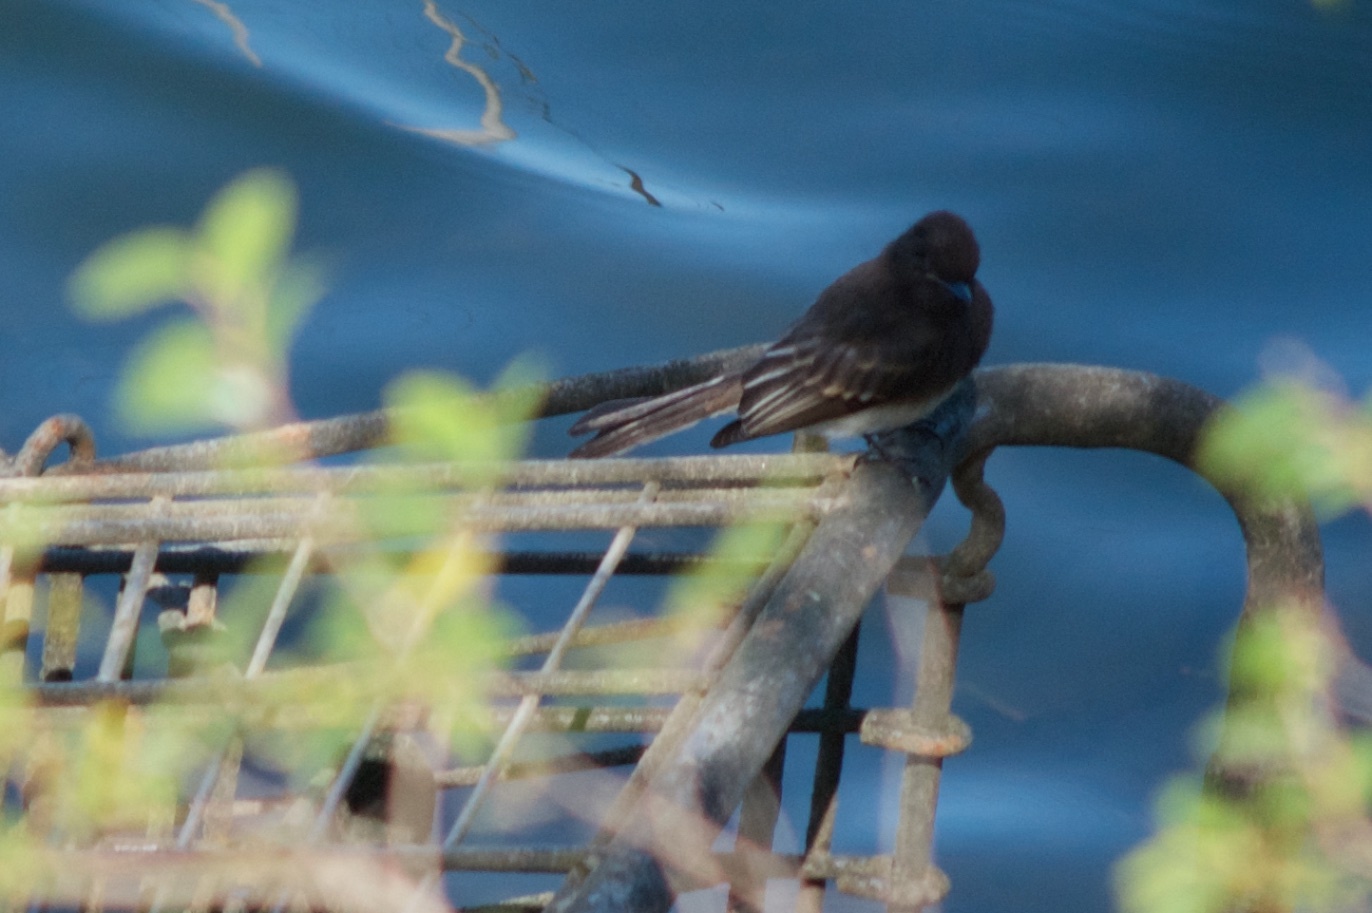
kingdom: Animalia
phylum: Chordata
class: Aves
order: Passeriformes
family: Tyrannidae
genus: Sayornis
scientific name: Sayornis nigricans
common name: Black phoebe
